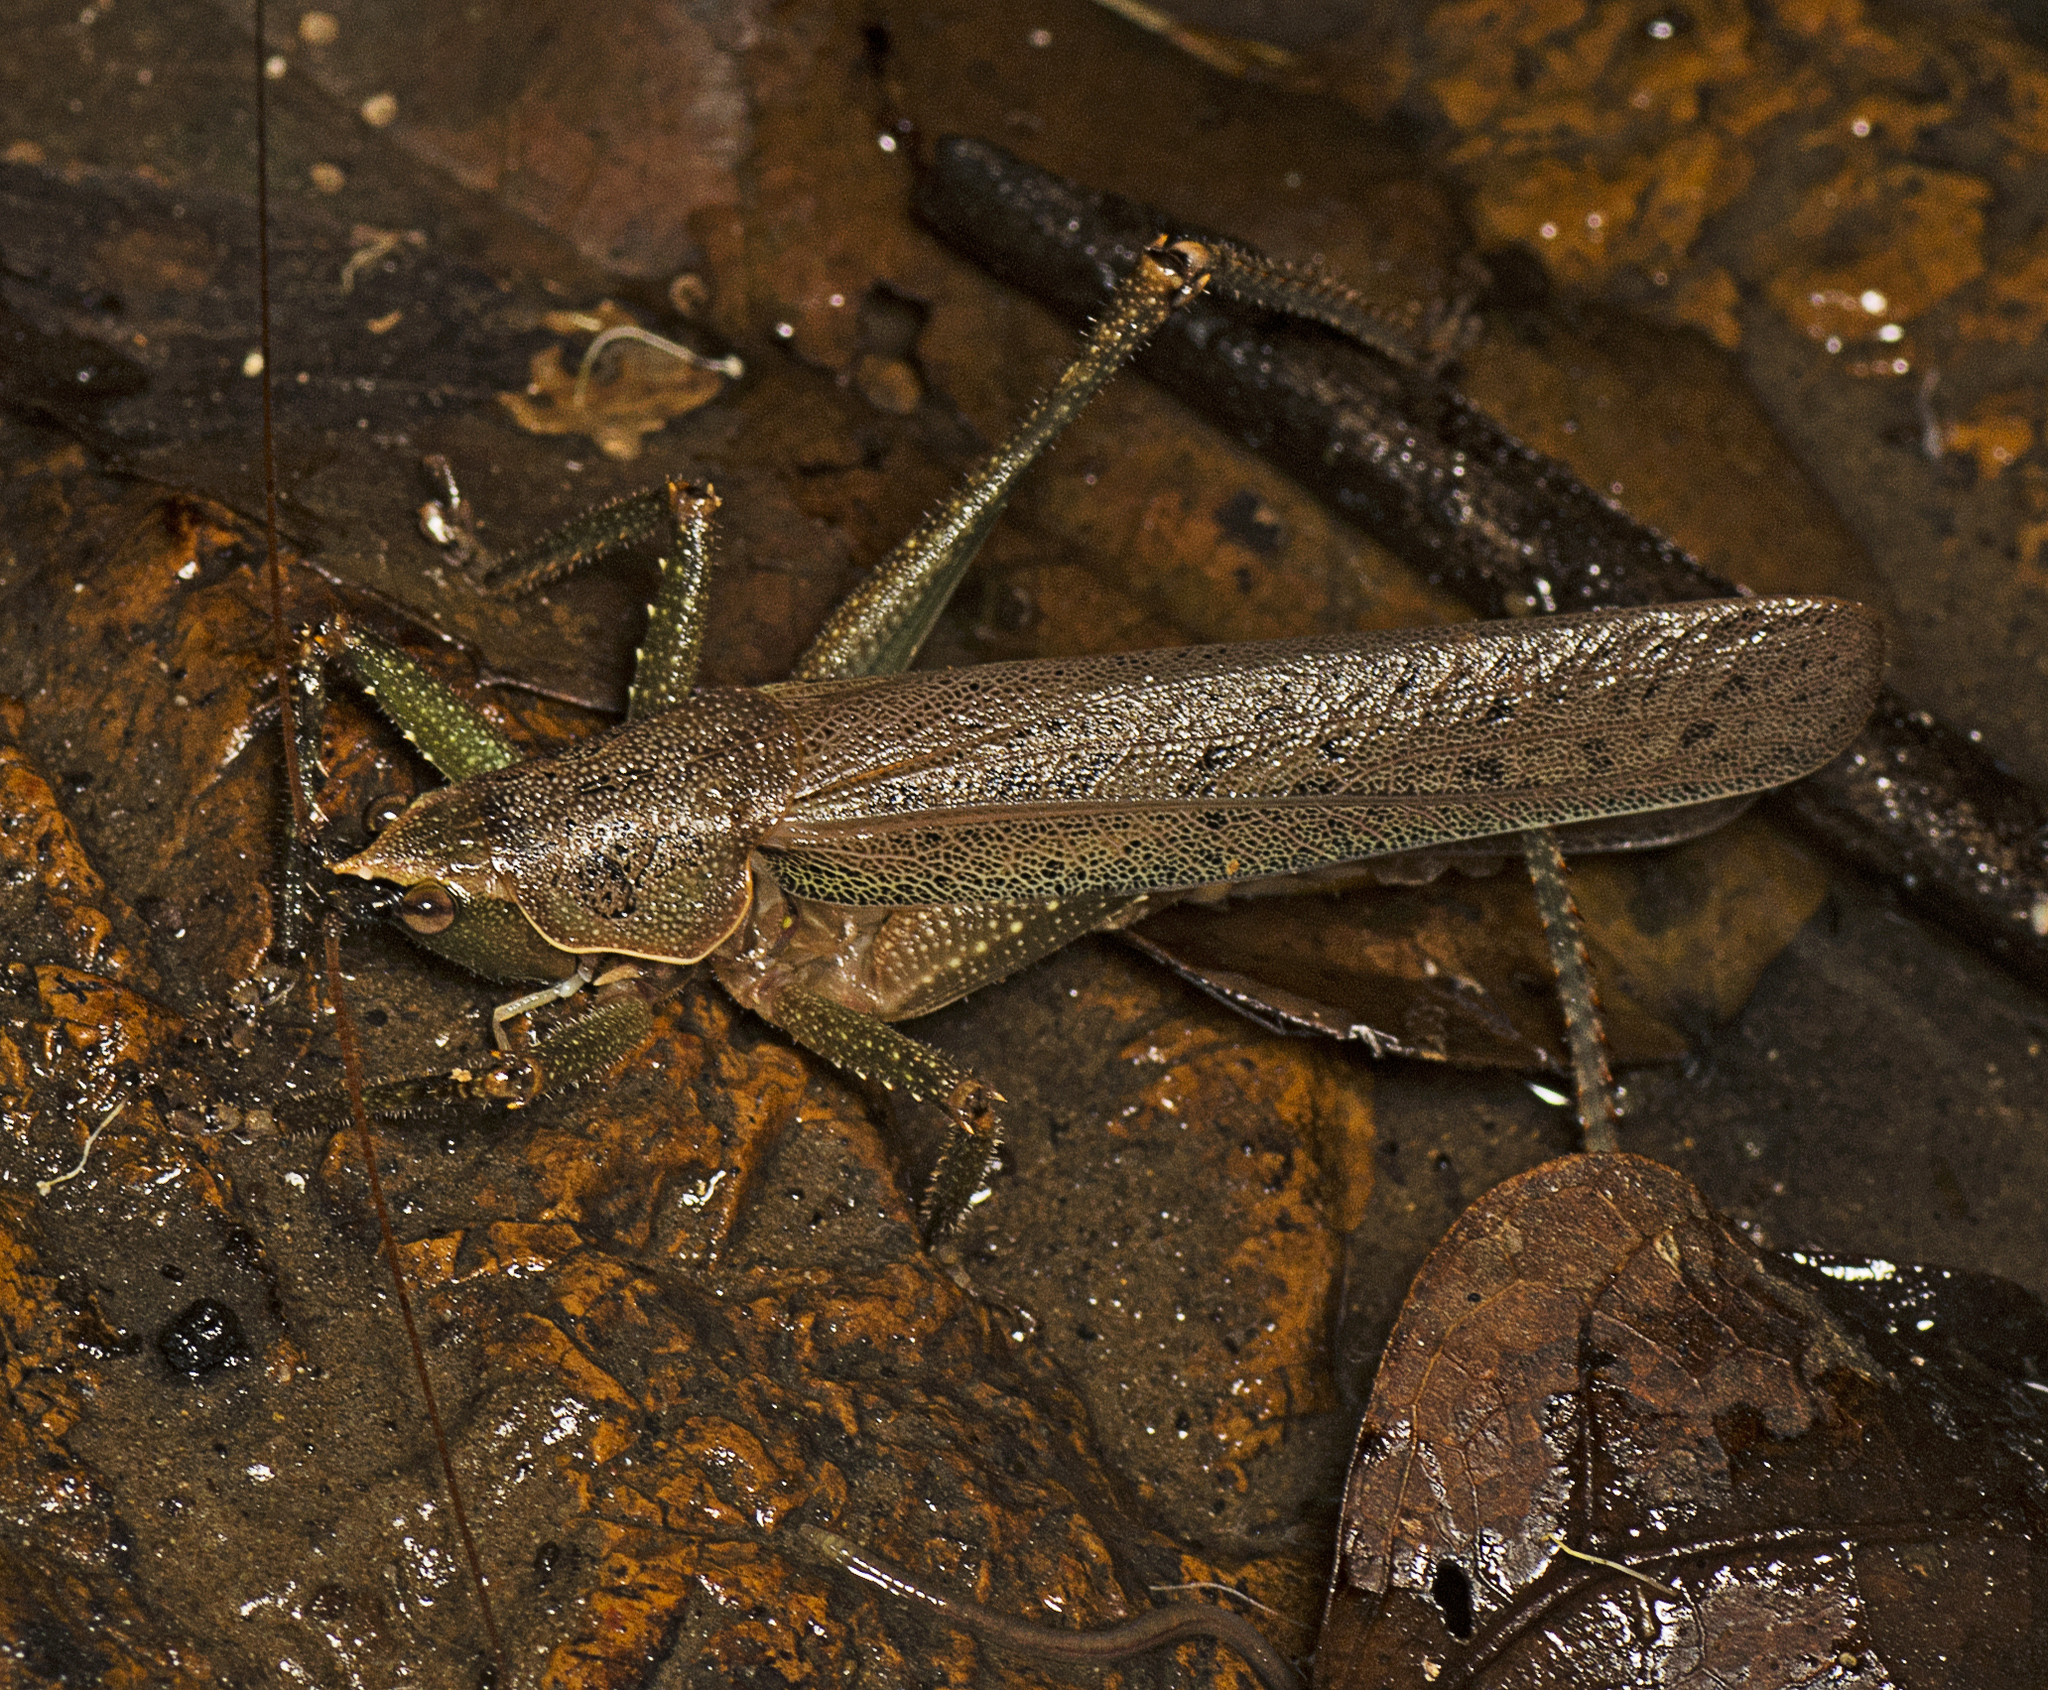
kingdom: Animalia
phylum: Arthropoda
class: Insecta
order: Orthoptera
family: Tettigoniidae
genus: Austrosalomona
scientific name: Austrosalomona falcata
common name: Olive-green coastal katydid
